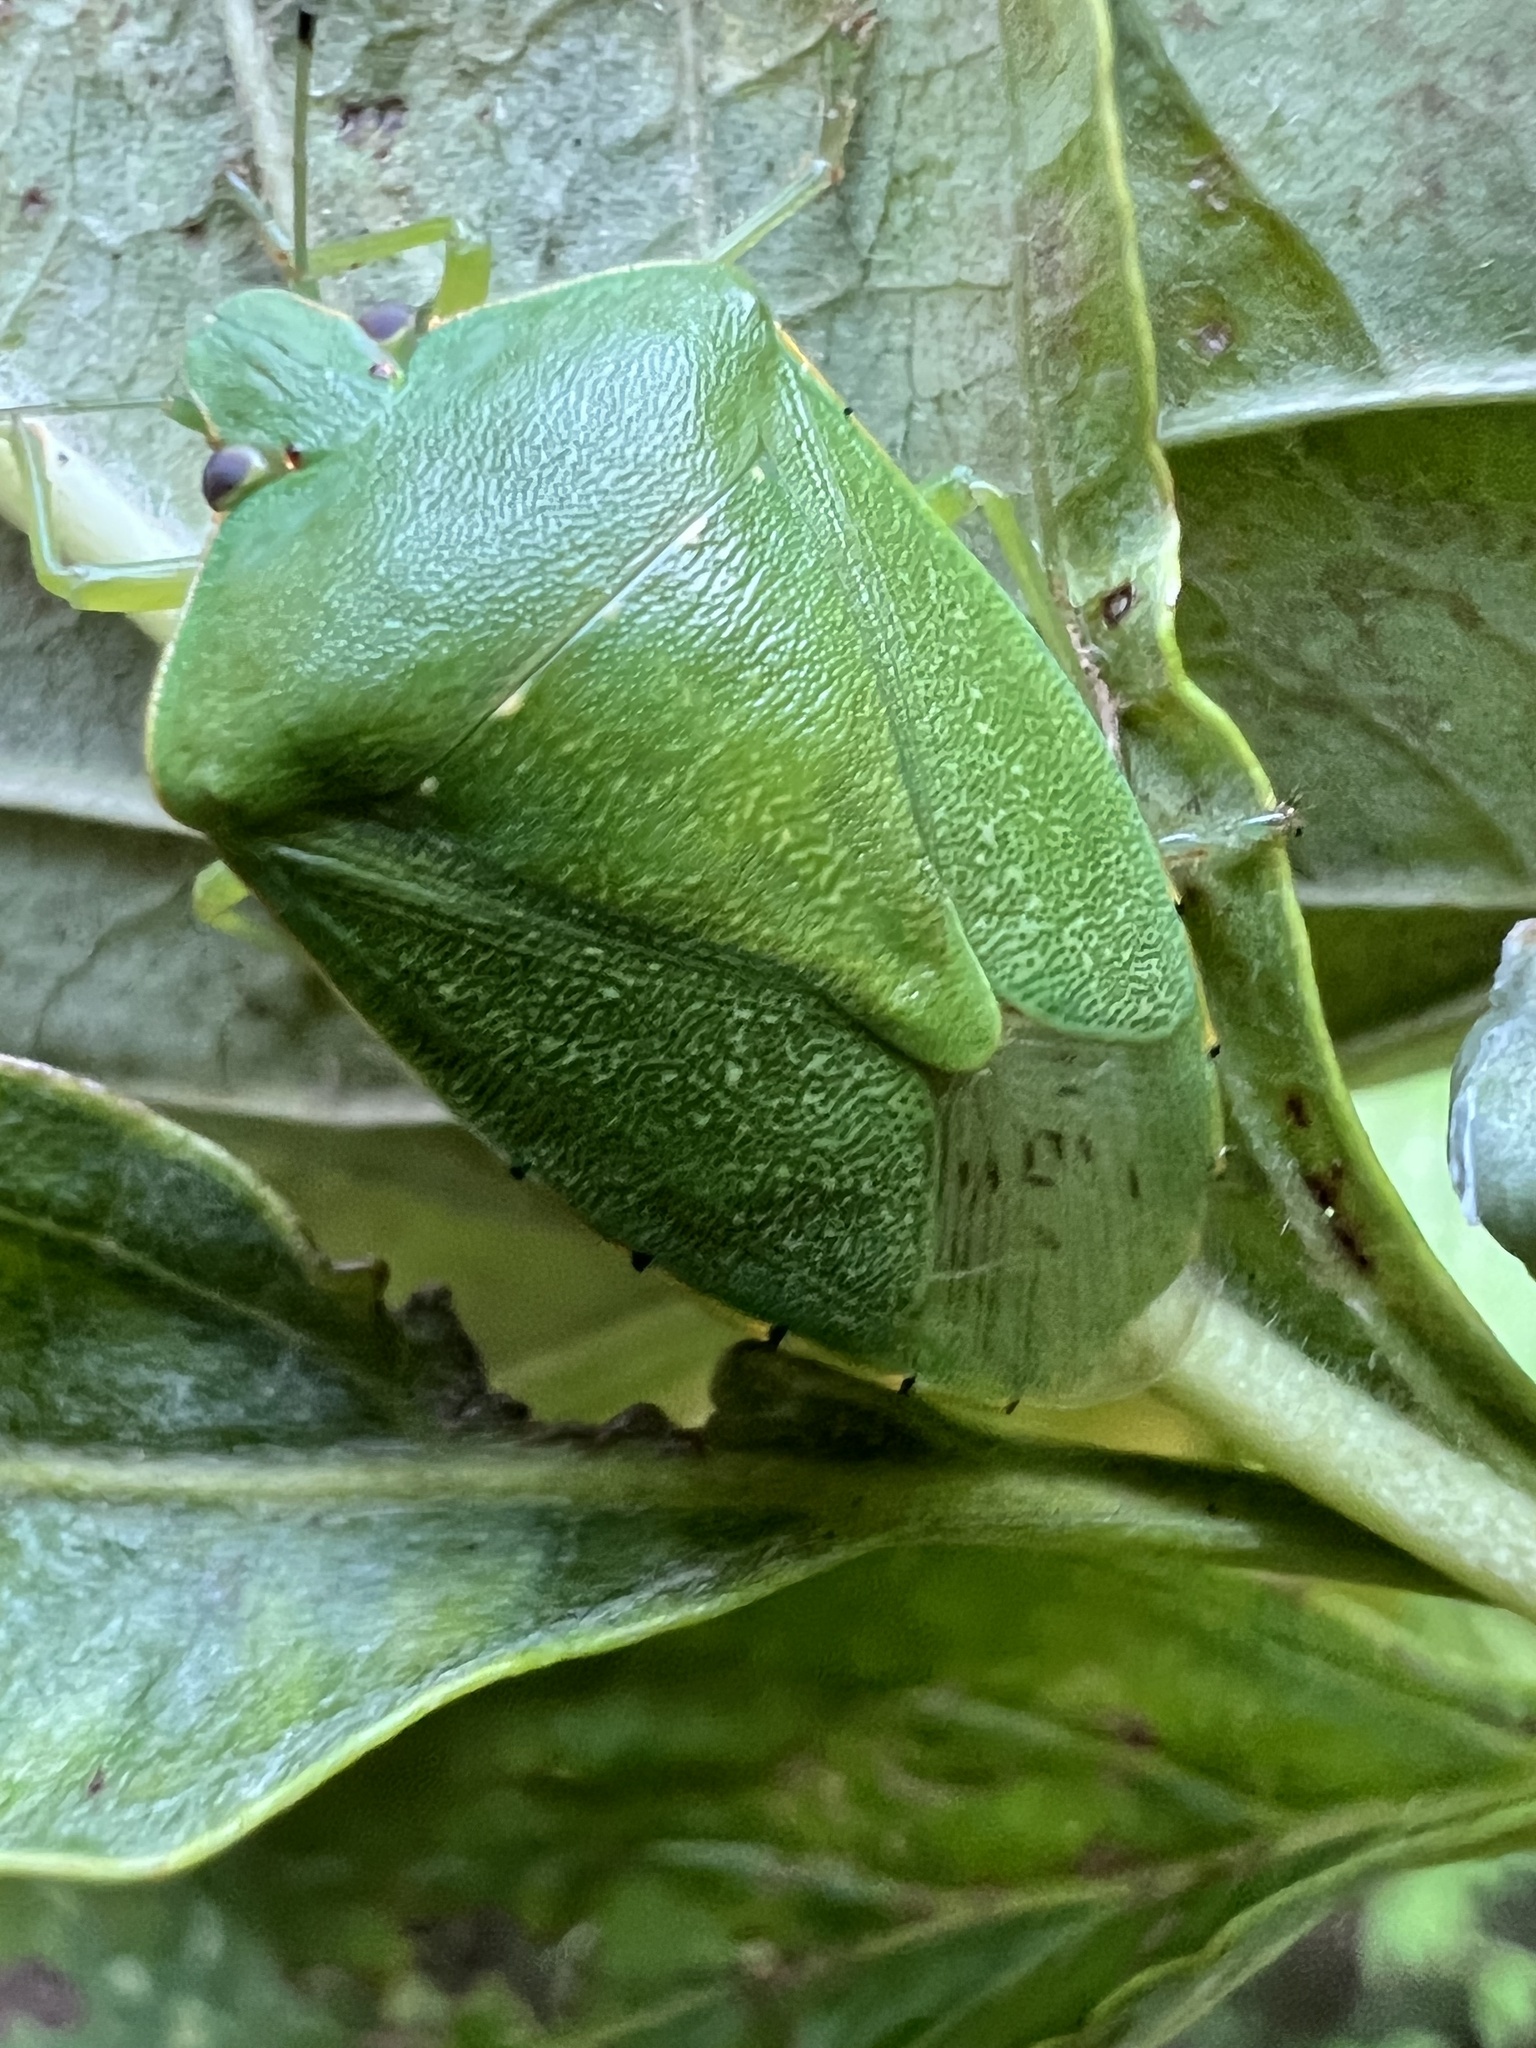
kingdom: Animalia
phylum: Arthropoda
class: Insecta
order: Hemiptera
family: Pentatomidae
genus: Chinavia
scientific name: Chinavia hilaris
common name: Green stink bug
